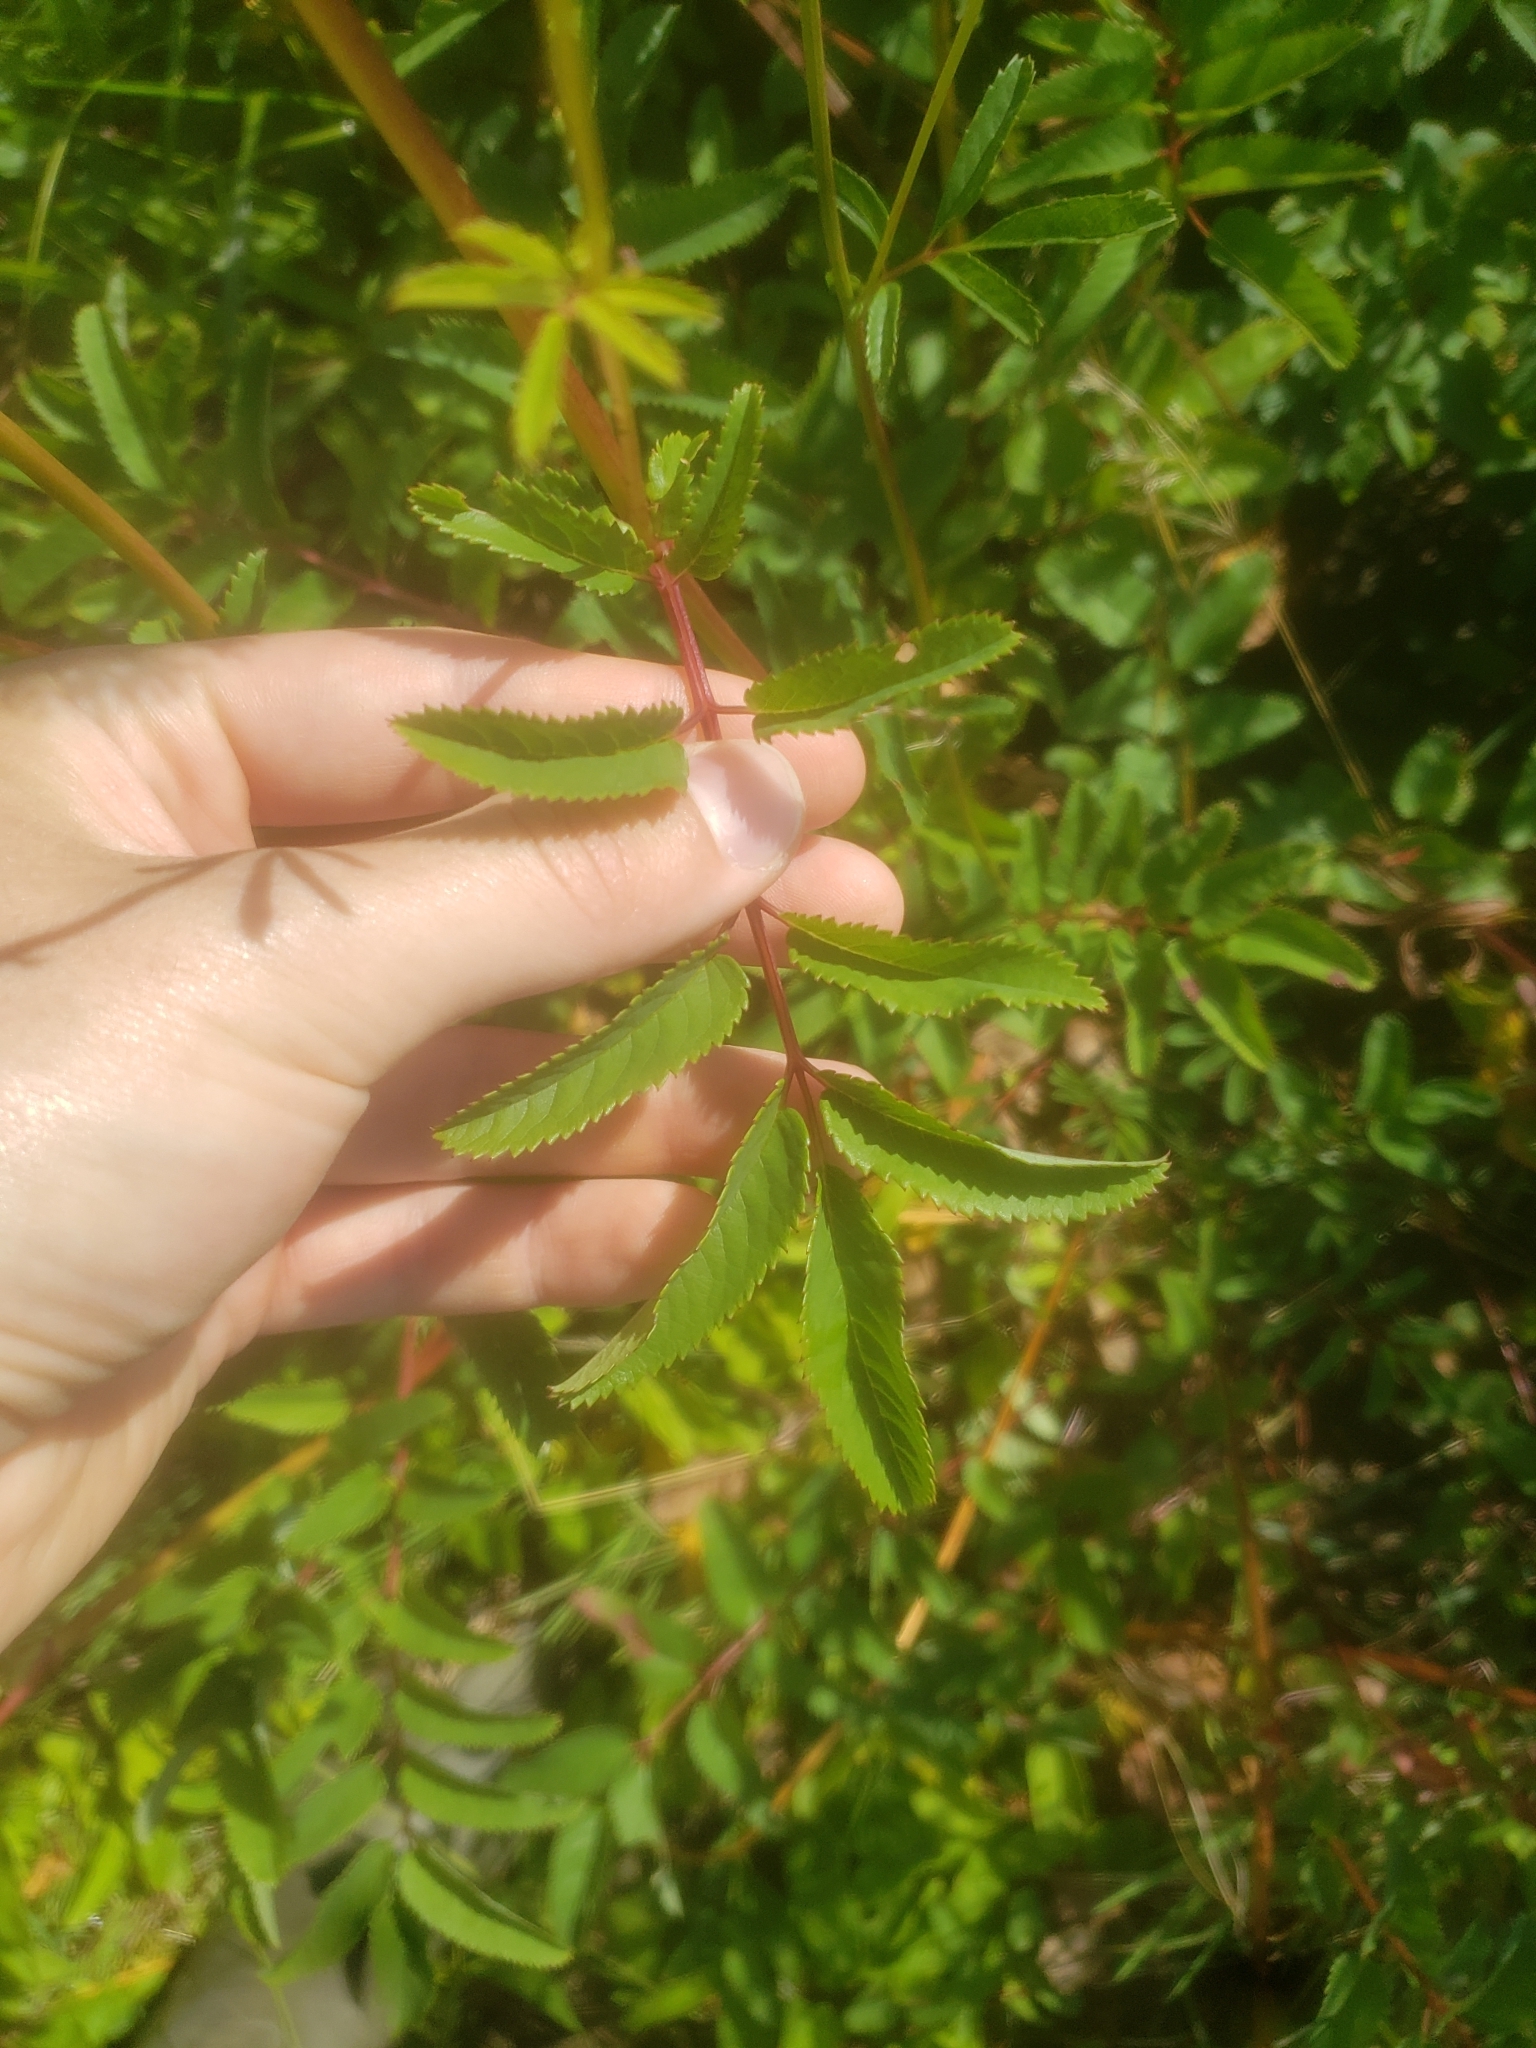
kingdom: Plantae
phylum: Tracheophyta
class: Magnoliopsida
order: Rosales
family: Rosaceae
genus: Sanguisorba
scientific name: Sanguisorba canadensis
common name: White burnet
